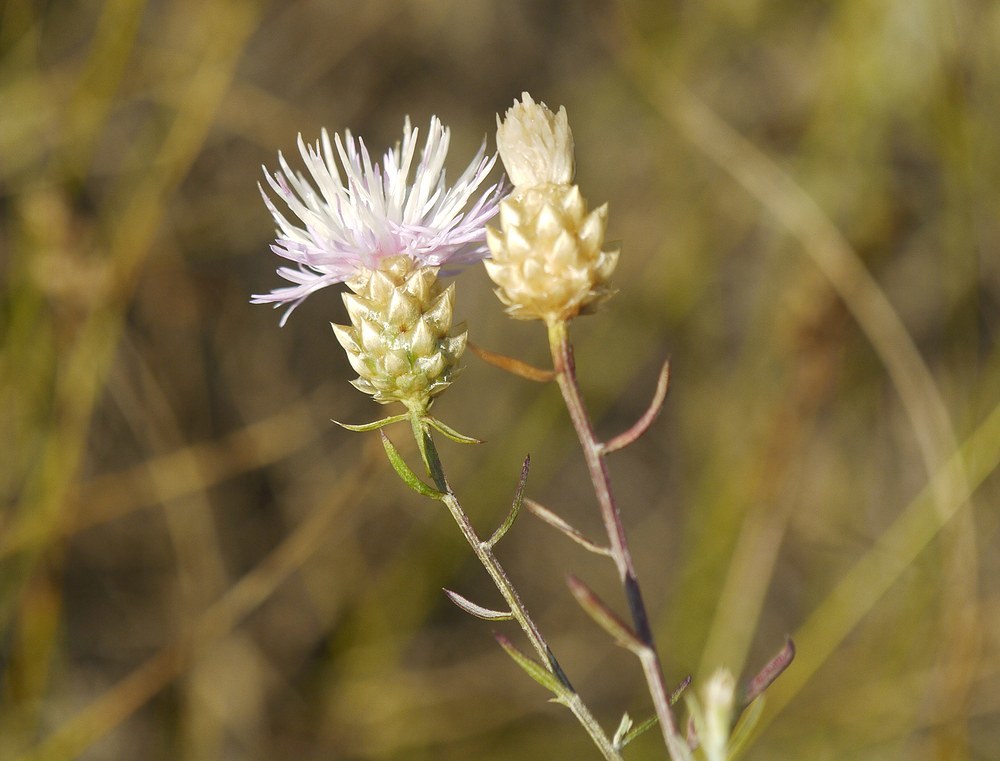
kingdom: Plantae
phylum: Tracheophyta
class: Magnoliopsida
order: Asterales
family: Asteraceae
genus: Centaurea
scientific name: Centaurea protomargaritacea
